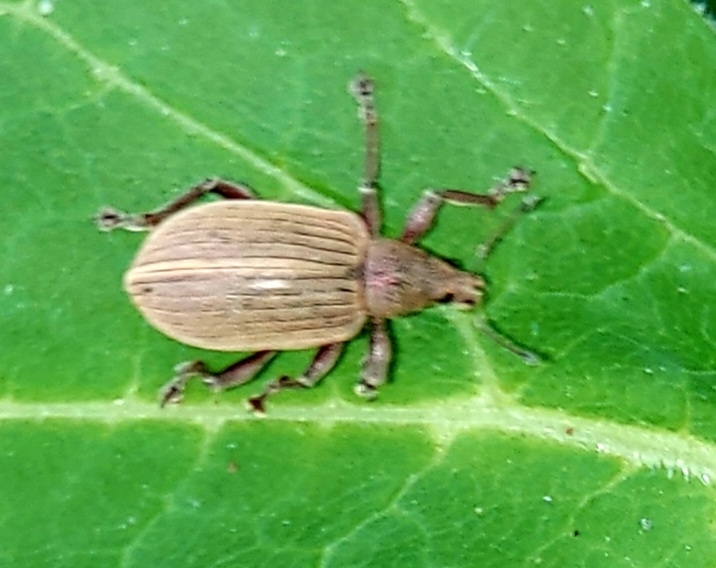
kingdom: Animalia
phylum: Arthropoda
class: Insecta
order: Coleoptera
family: Curculionidae
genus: Polydrusus
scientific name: Polydrusus mollis
